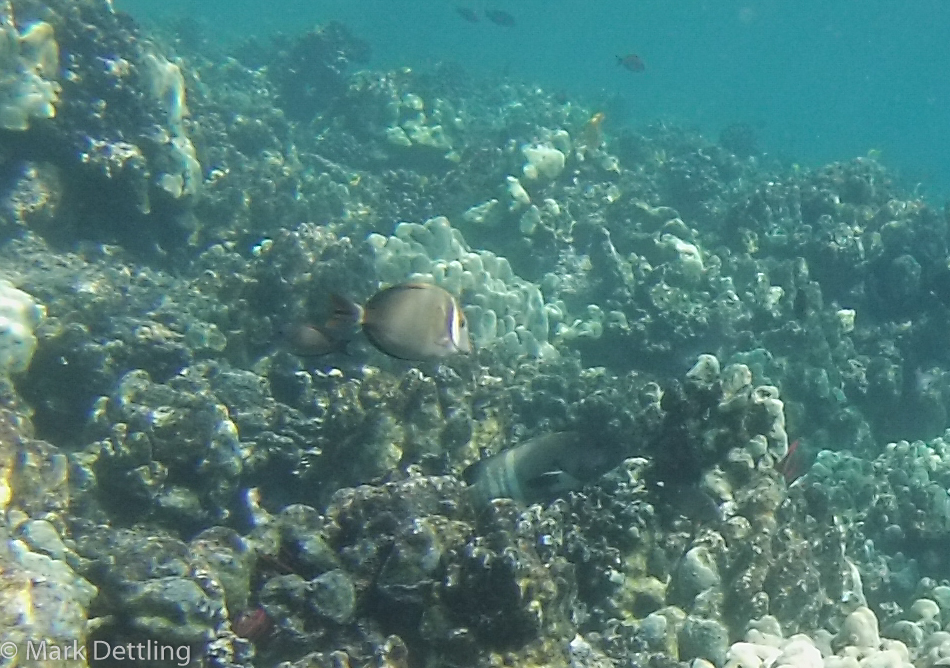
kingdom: Animalia
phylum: Chordata
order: Perciformes
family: Acanthuridae
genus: Acanthurus
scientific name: Acanthurus leucopareius
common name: Head-band surgeonfish
